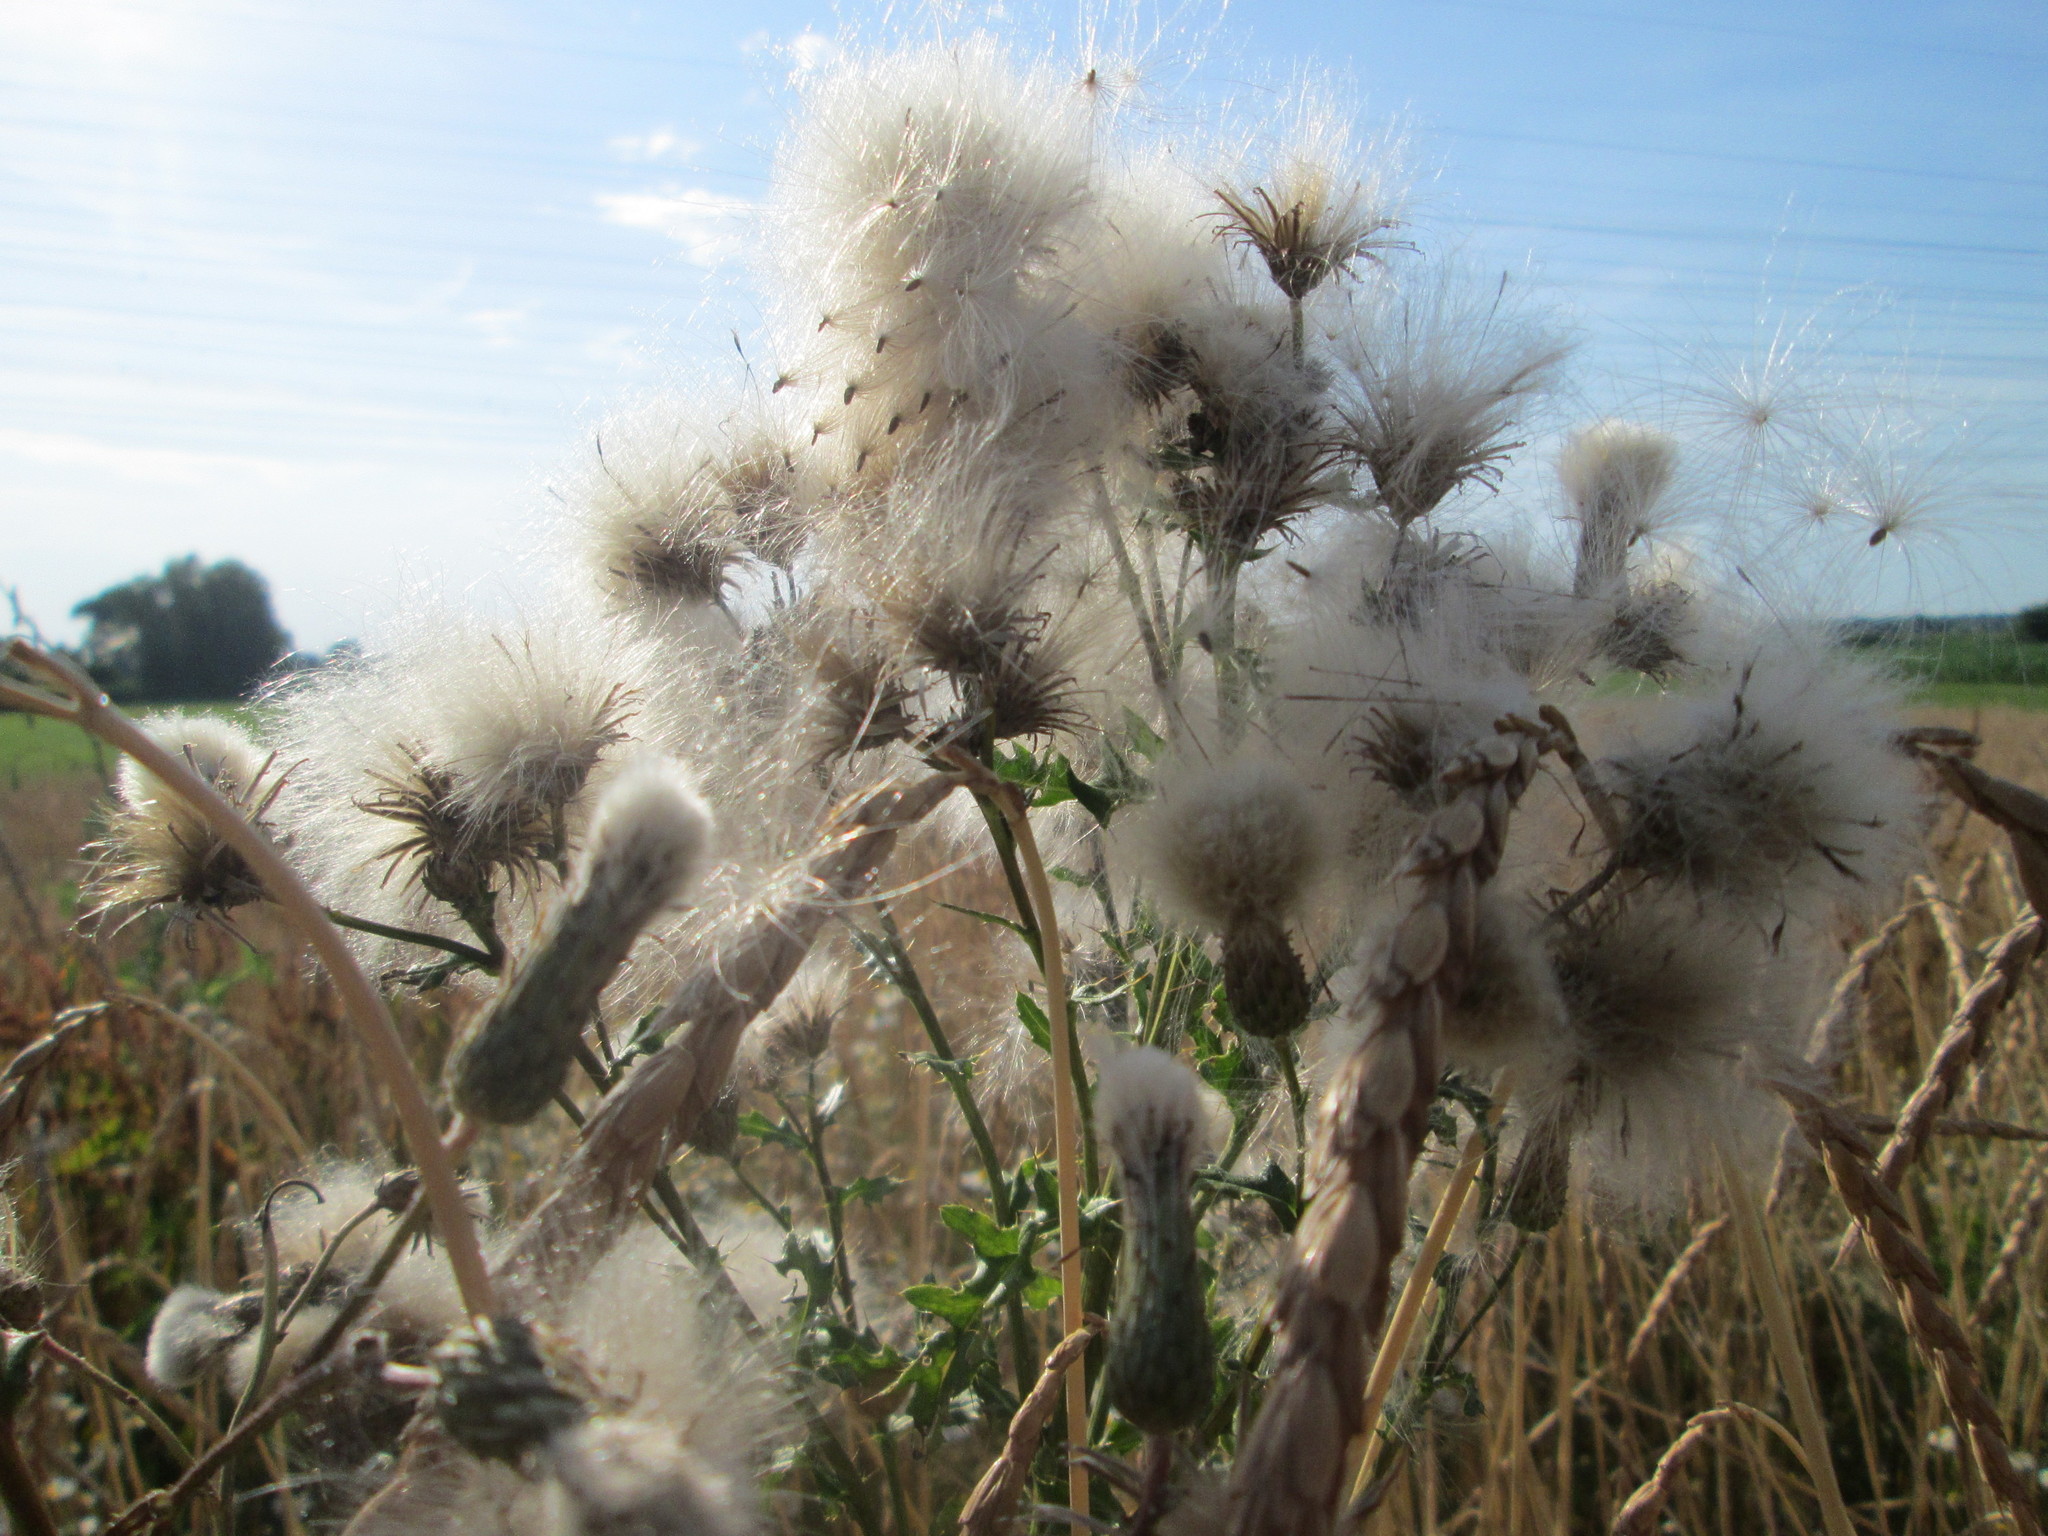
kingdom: Plantae
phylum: Tracheophyta
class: Magnoliopsida
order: Asterales
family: Asteraceae
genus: Cirsium
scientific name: Cirsium arvense
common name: Creeping thistle
